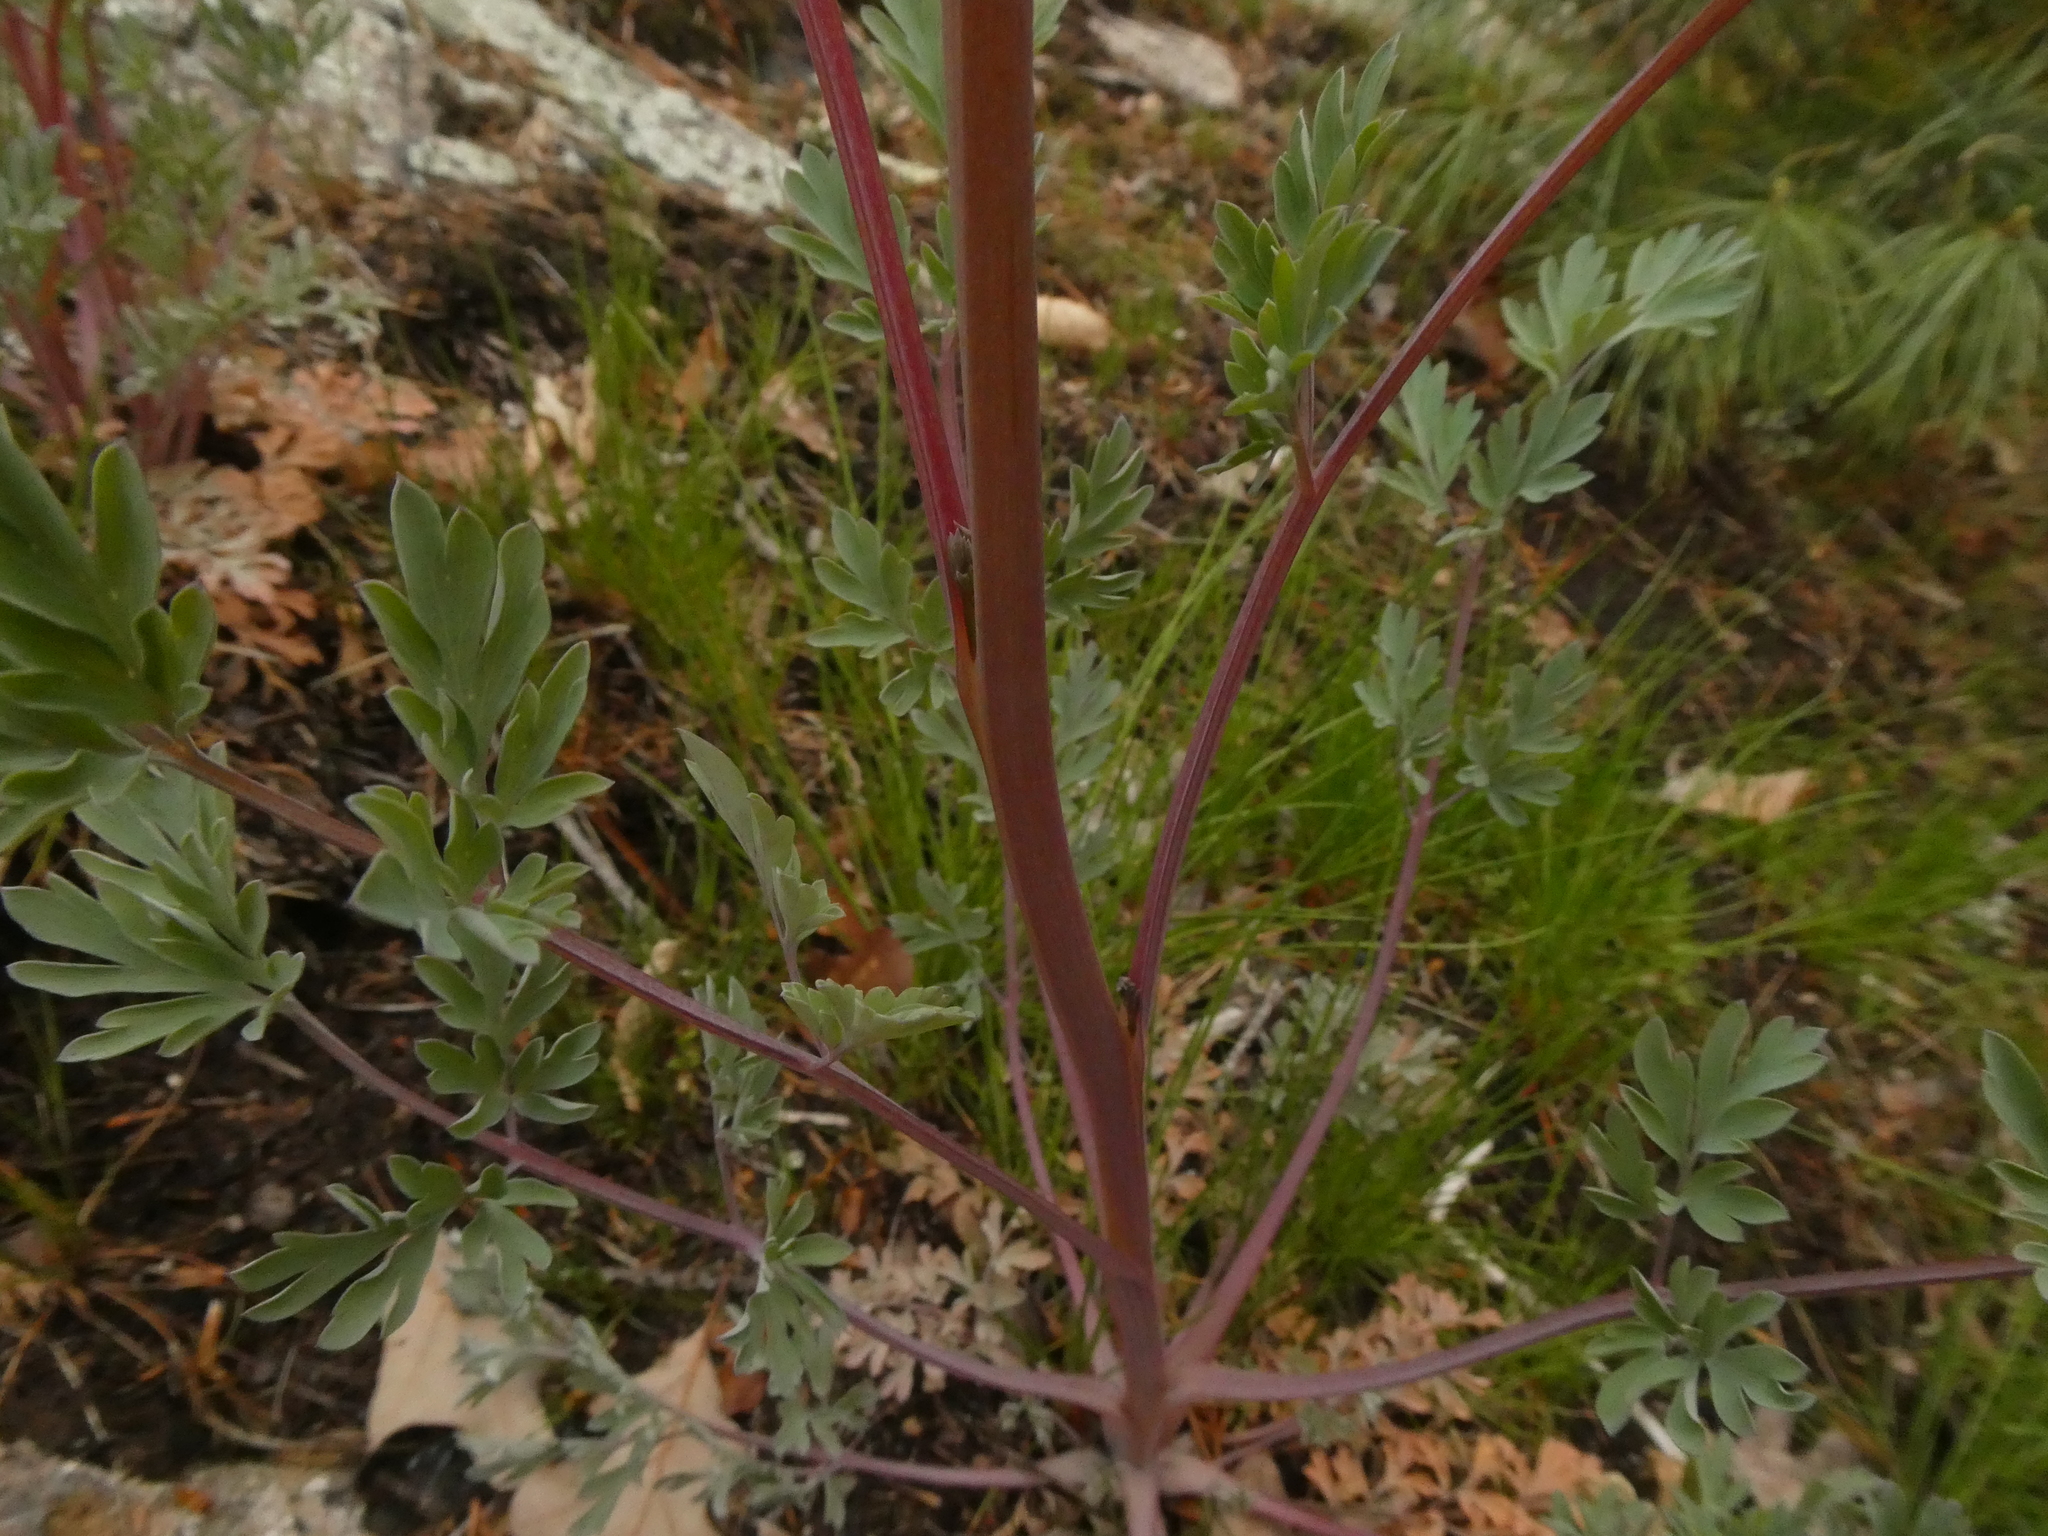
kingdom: Plantae
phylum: Tracheophyta
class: Magnoliopsida
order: Ranunculales
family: Papaveraceae
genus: Capnoides
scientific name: Capnoides sempervirens
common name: Rock harlequin
